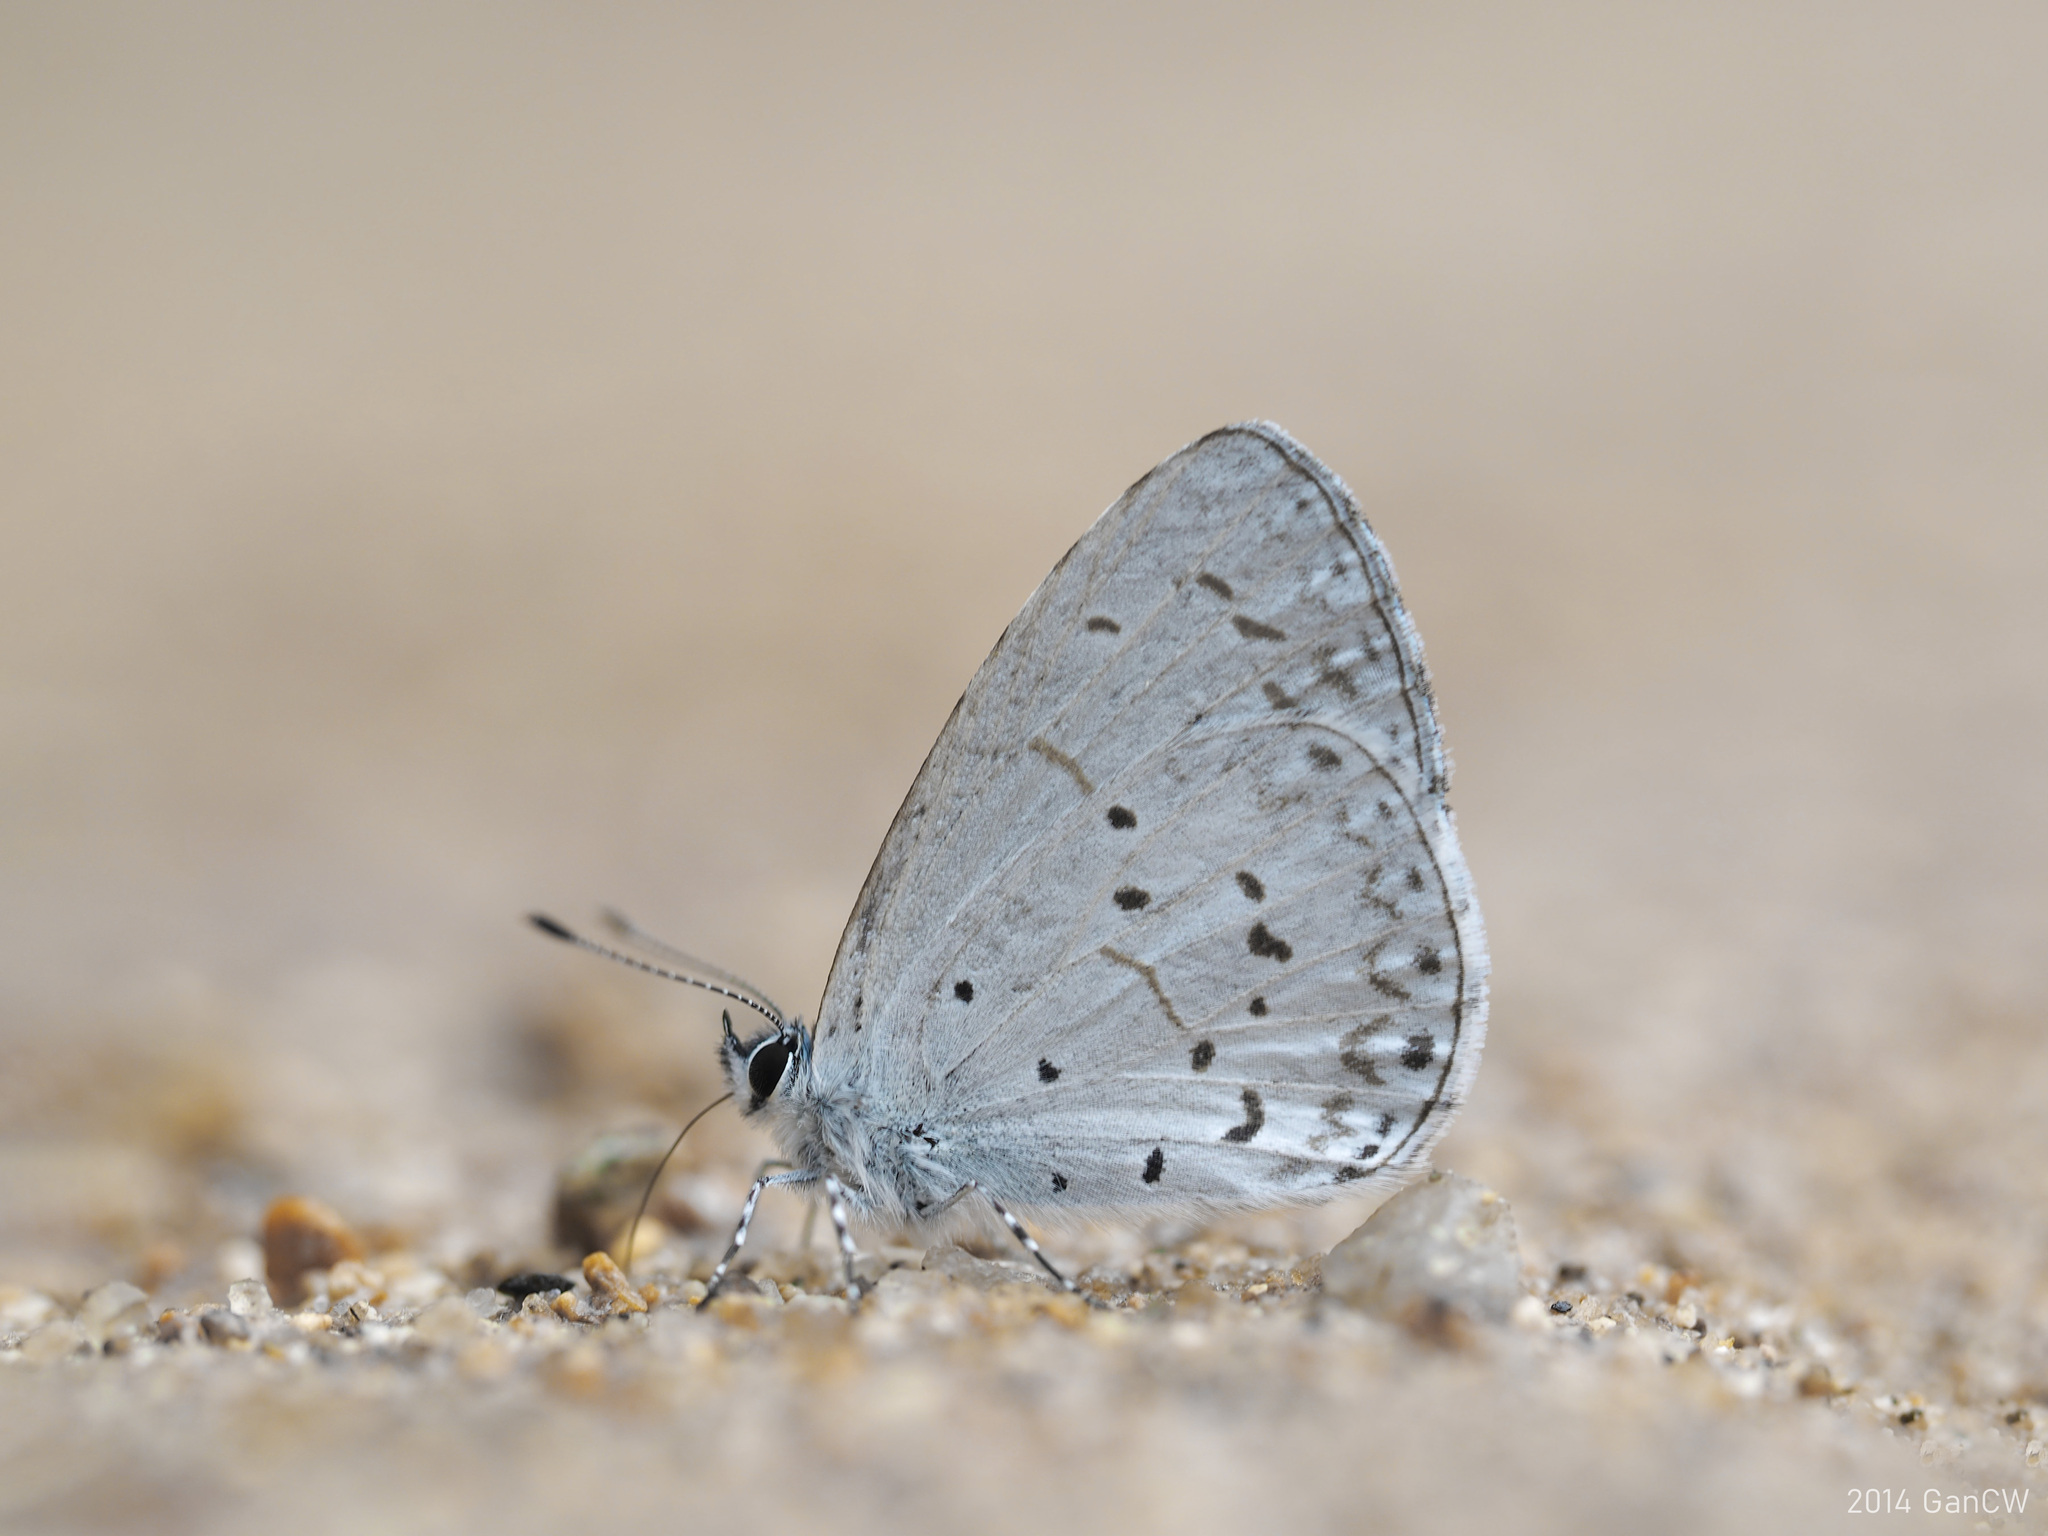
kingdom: Animalia
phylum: Arthropoda
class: Insecta
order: Lepidoptera
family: Lycaenidae
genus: Udara
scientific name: Udara dilectus
